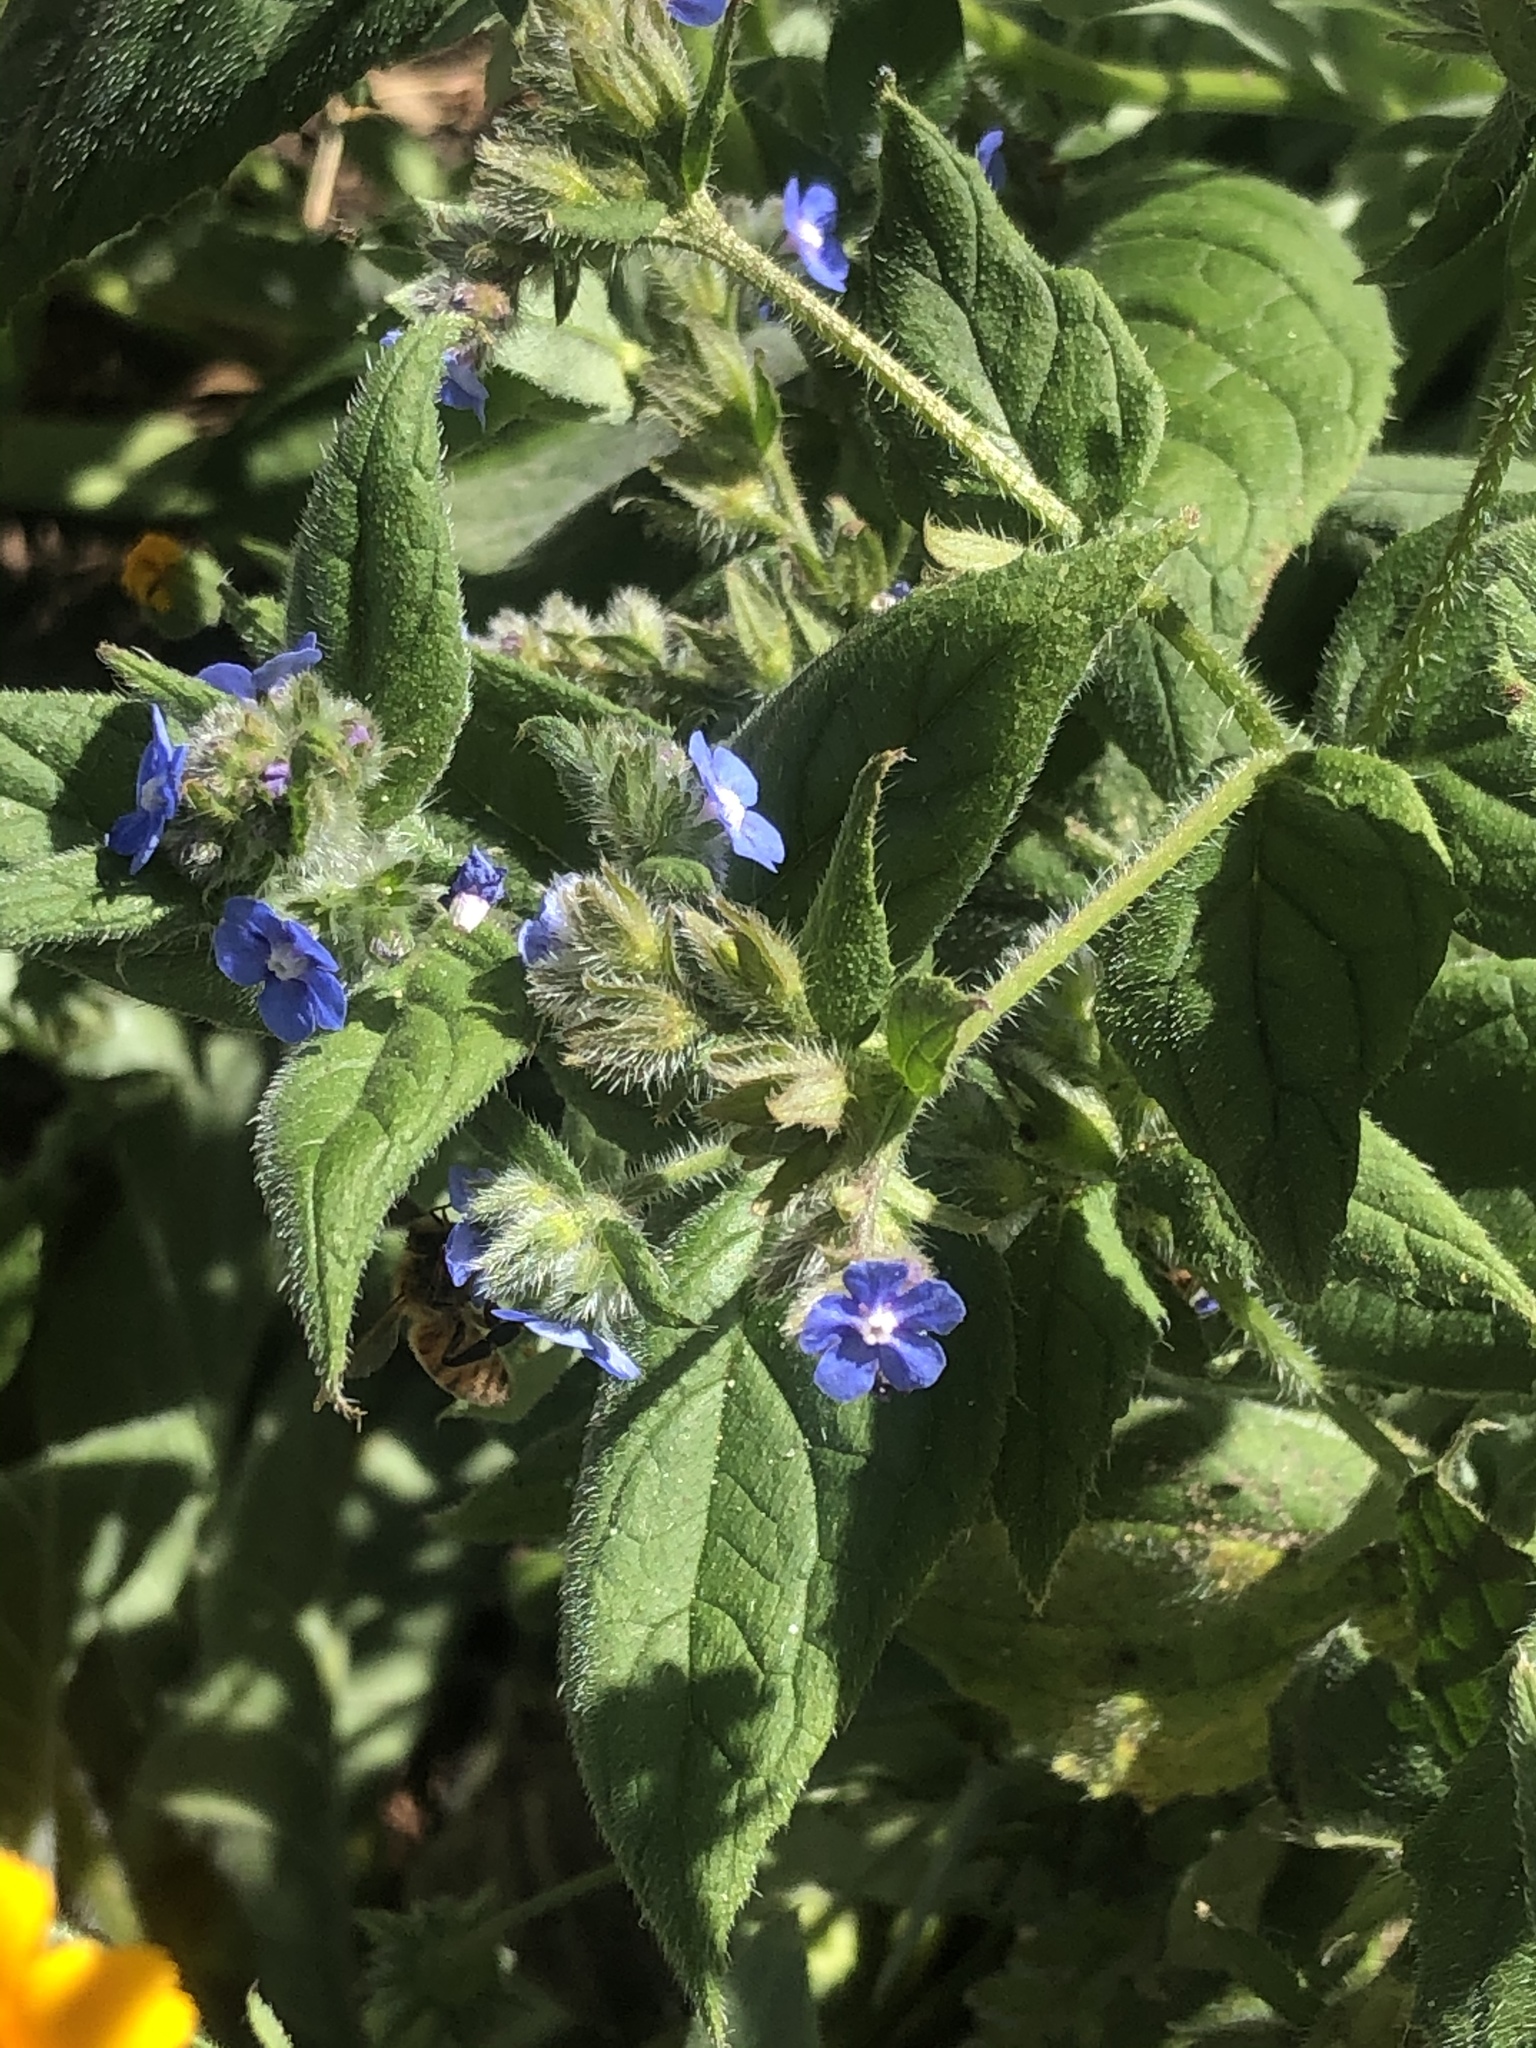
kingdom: Animalia
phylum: Arthropoda
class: Insecta
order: Hymenoptera
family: Apidae
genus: Apis
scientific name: Apis mellifera
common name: Honey bee
